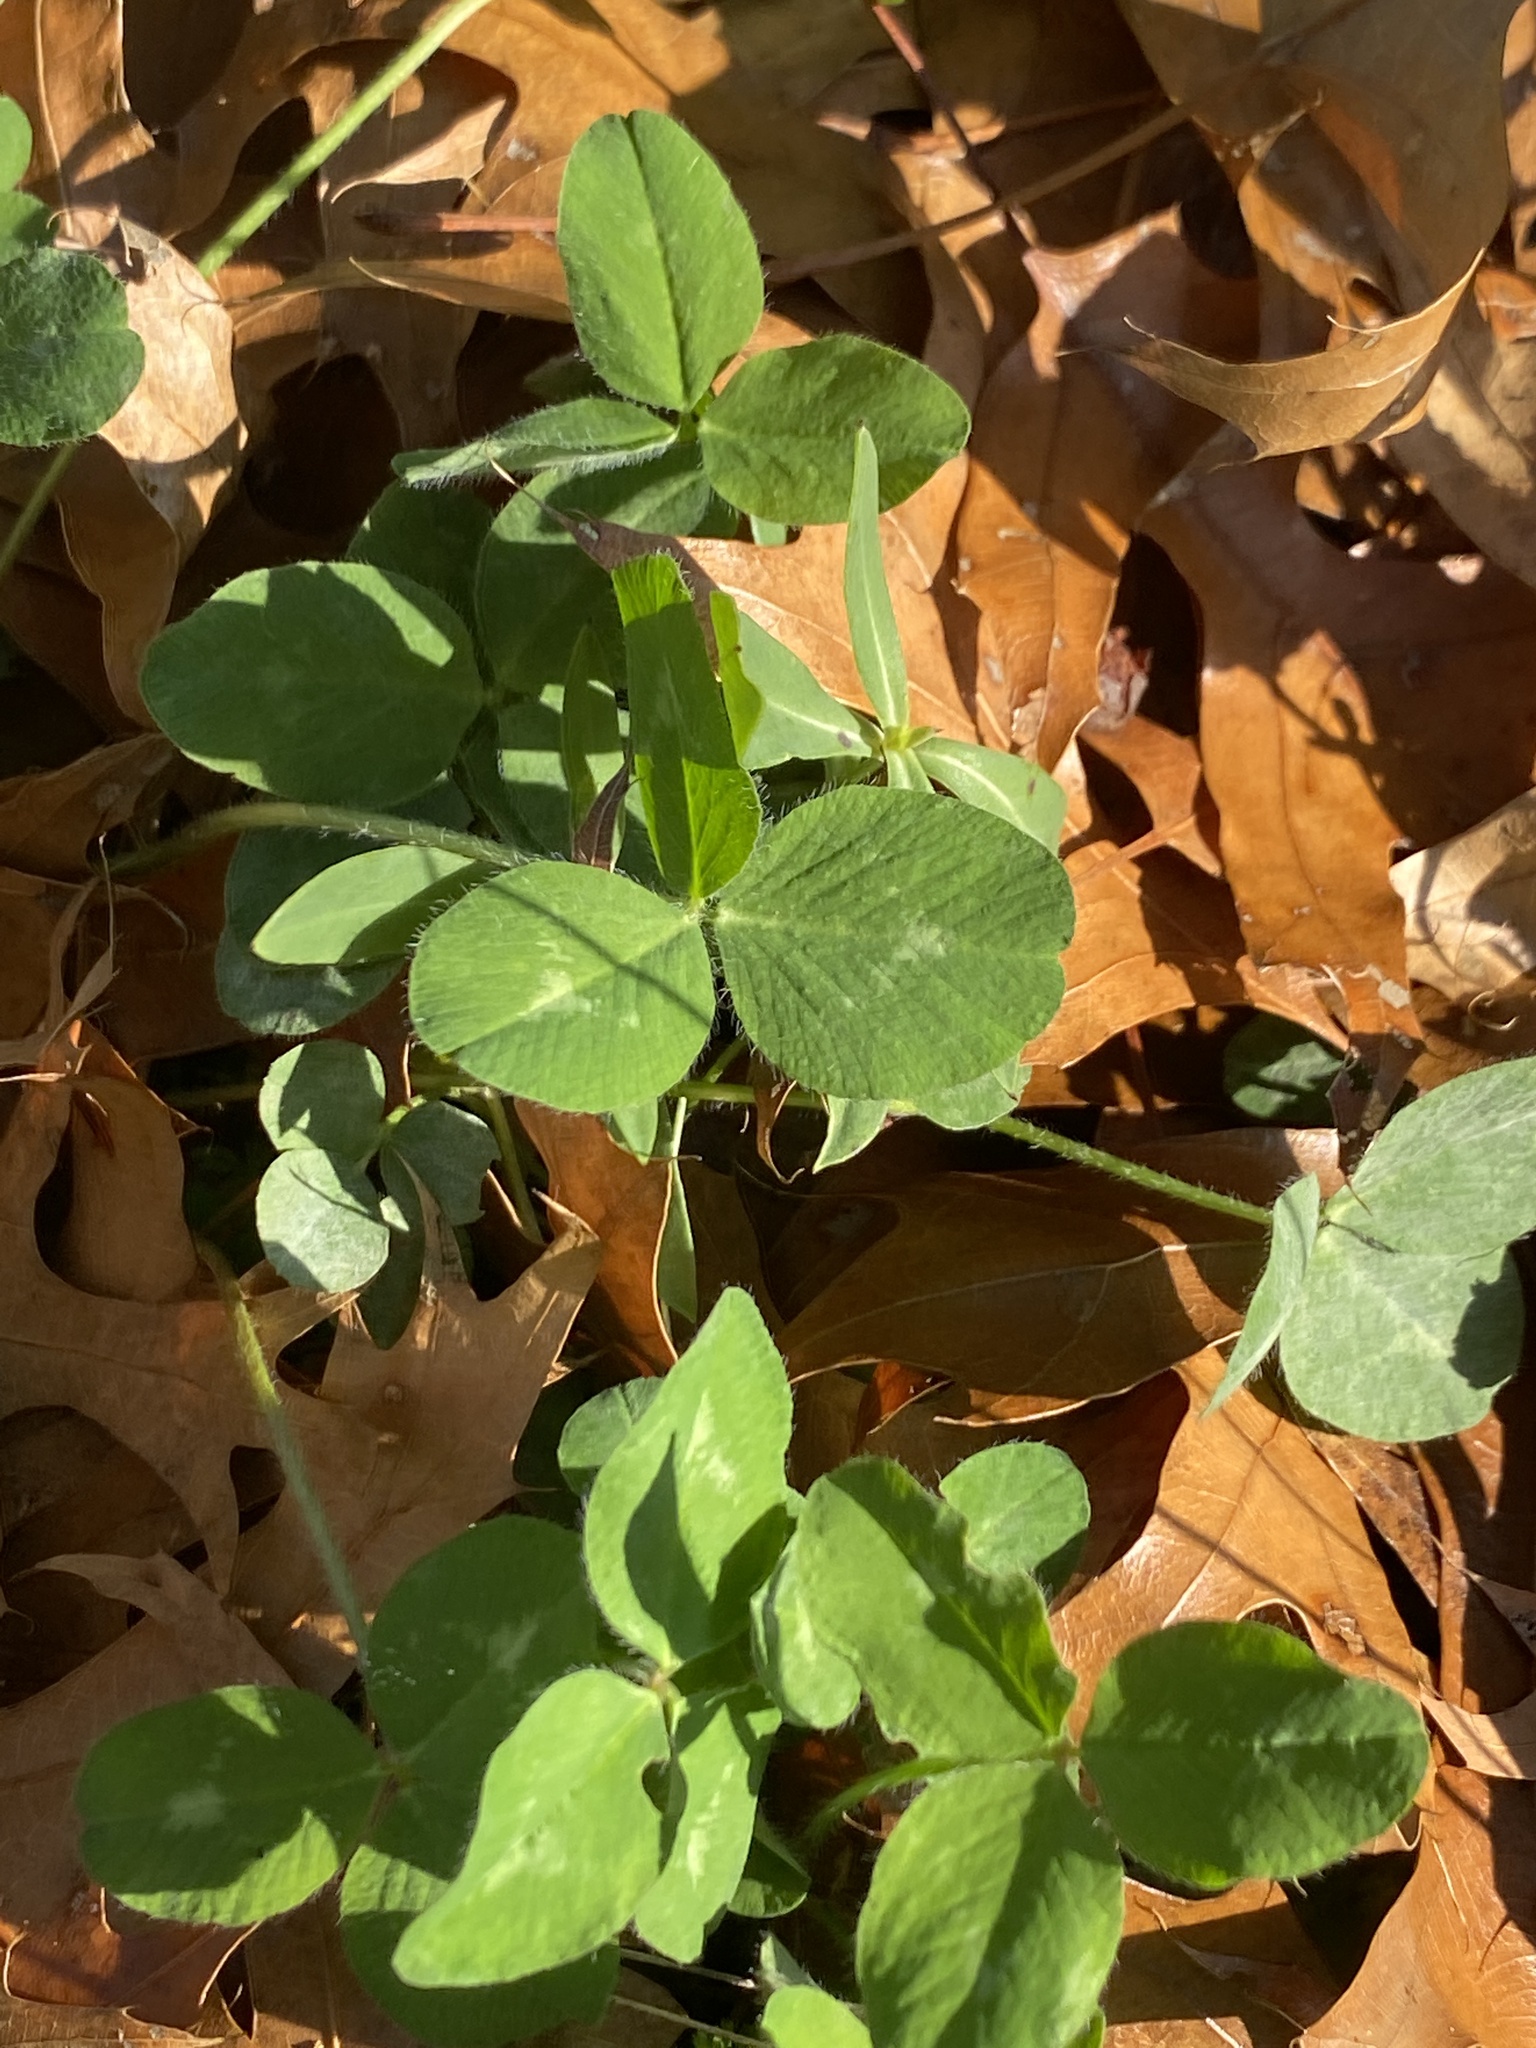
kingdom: Plantae
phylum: Tracheophyta
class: Magnoliopsida
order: Fabales
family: Fabaceae
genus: Trifolium
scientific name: Trifolium pratense
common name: Red clover
